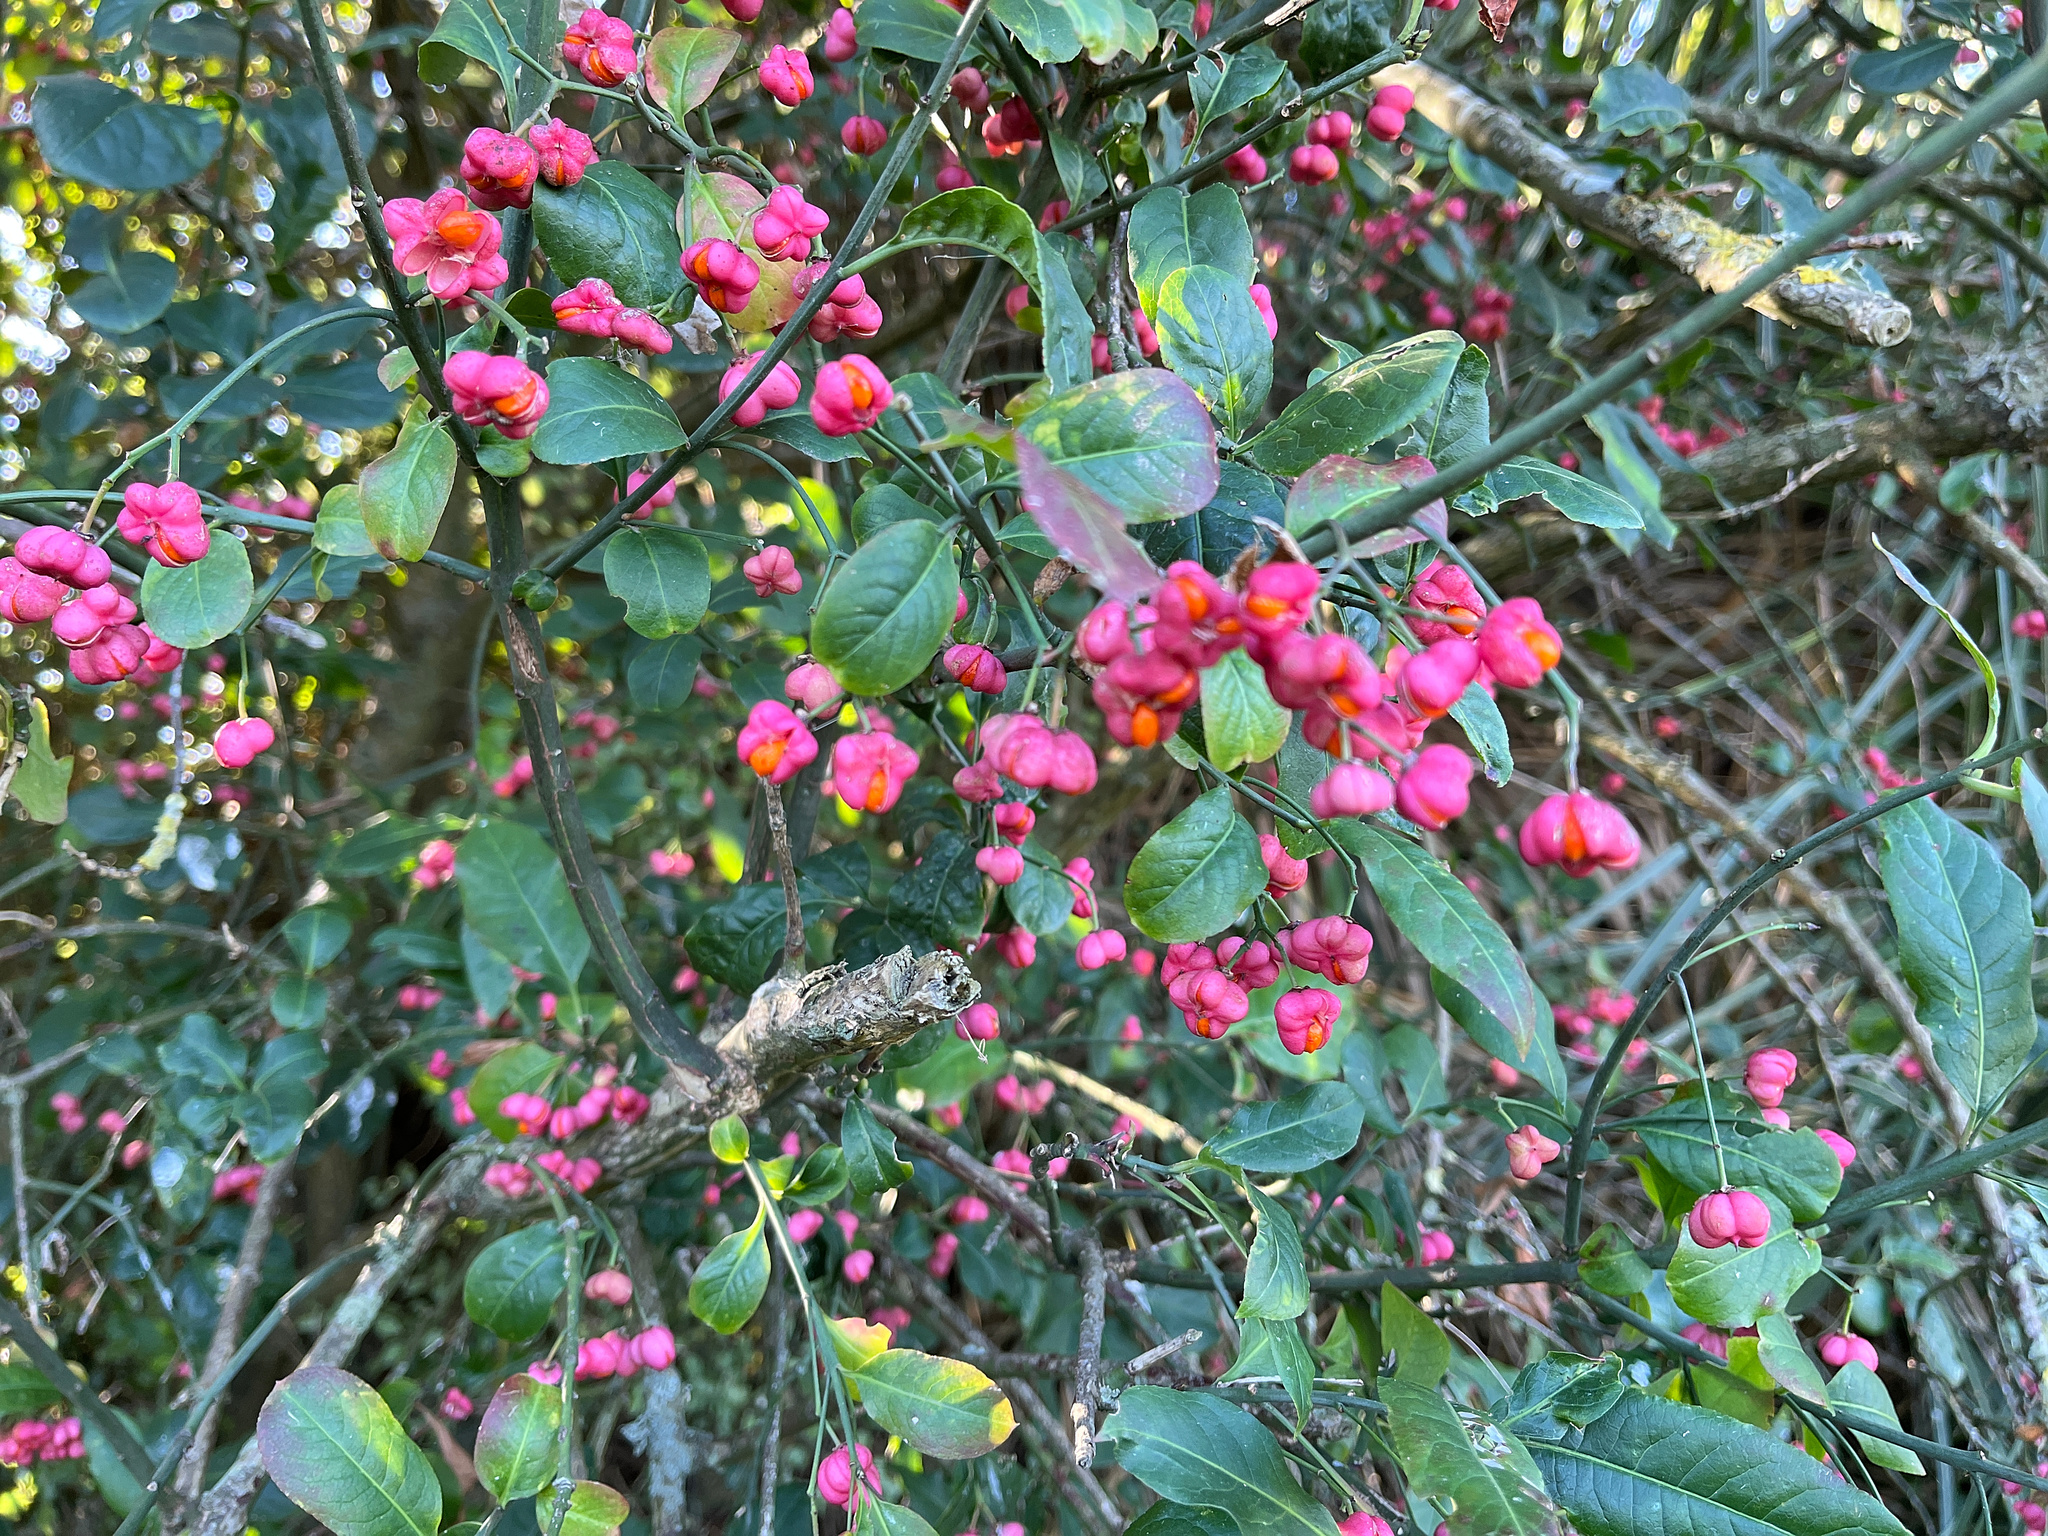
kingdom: Plantae
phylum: Tracheophyta
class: Magnoliopsida
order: Celastrales
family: Celastraceae
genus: Euonymus
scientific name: Euonymus europaeus
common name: Spindle
